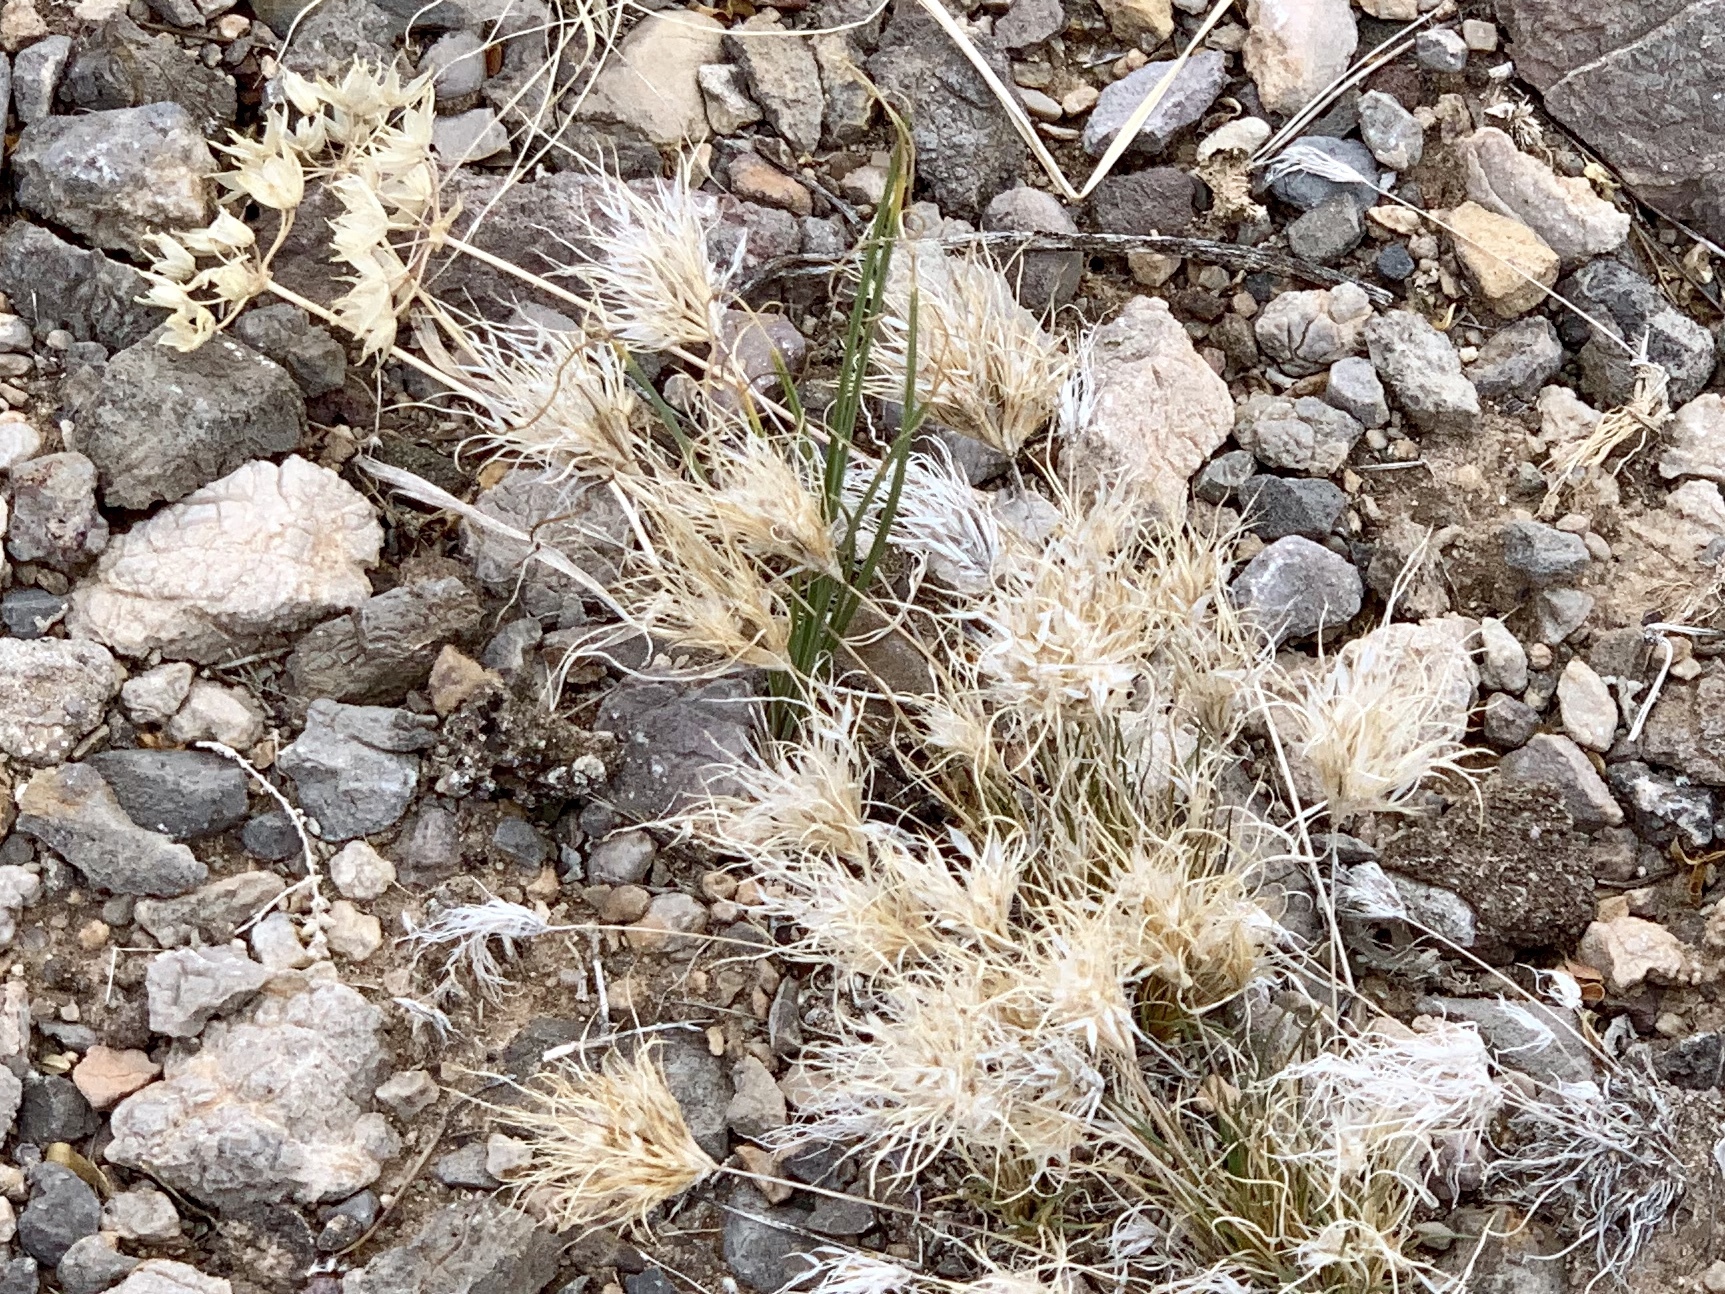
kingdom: Plantae
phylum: Tracheophyta
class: Liliopsida
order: Poales
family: Poaceae
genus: Dasyochloa
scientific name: Dasyochloa pulchella
